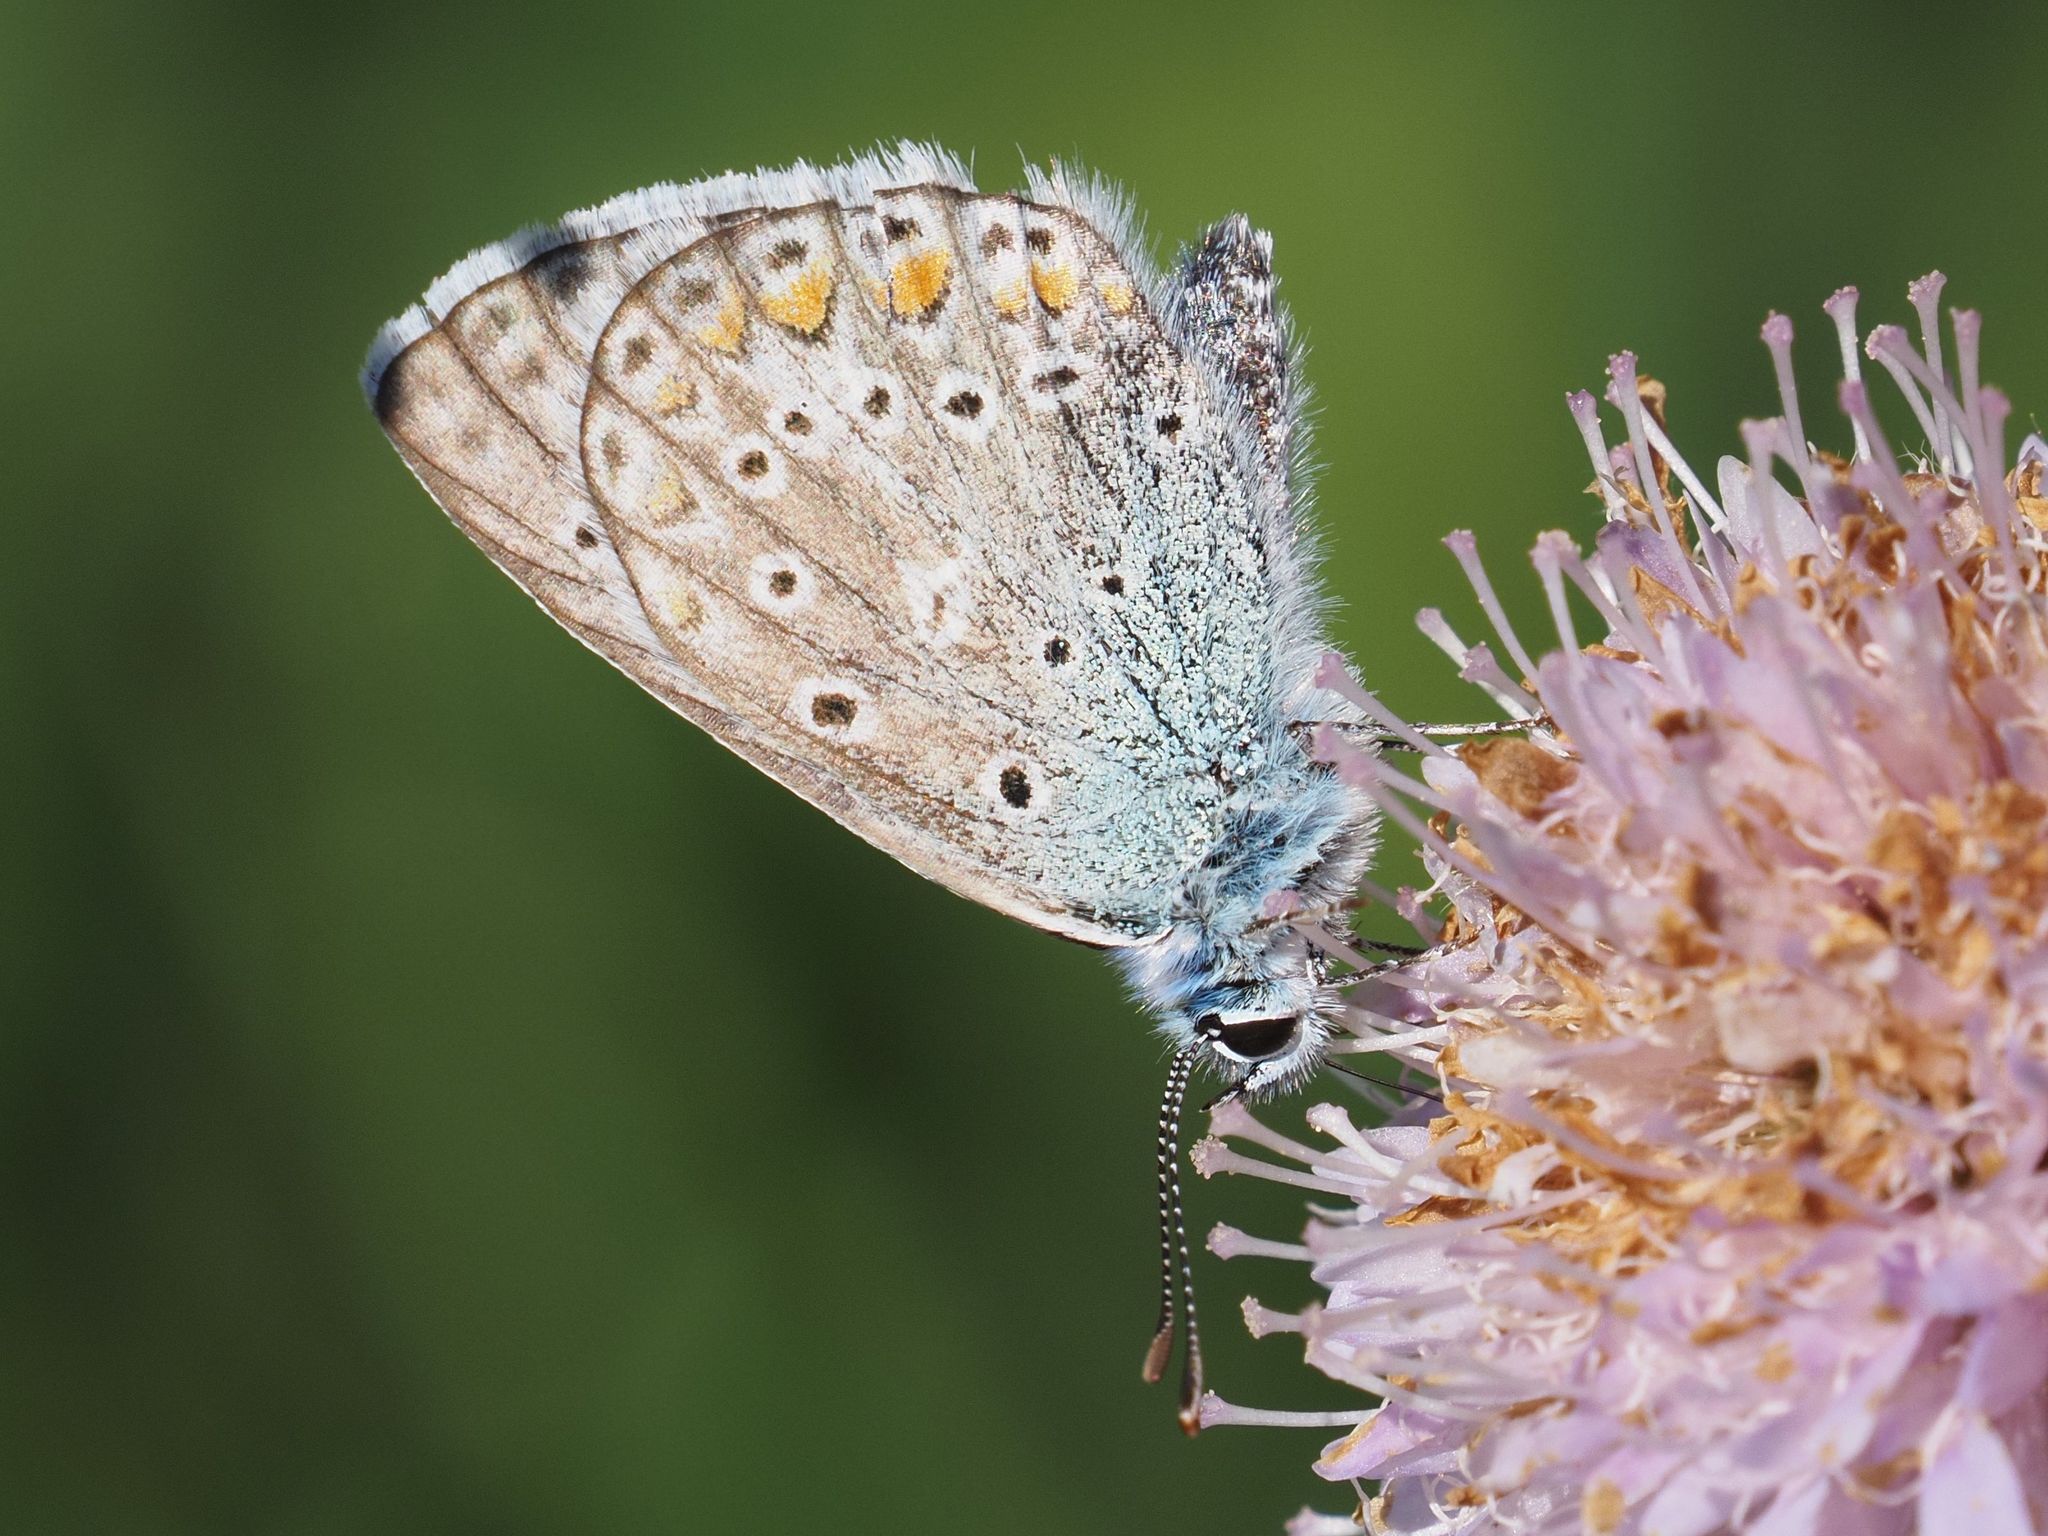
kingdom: Animalia
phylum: Arthropoda
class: Insecta
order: Lepidoptera
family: Lycaenidae
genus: Polyommatus
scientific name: Polyommatus icarus
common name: Common blue
